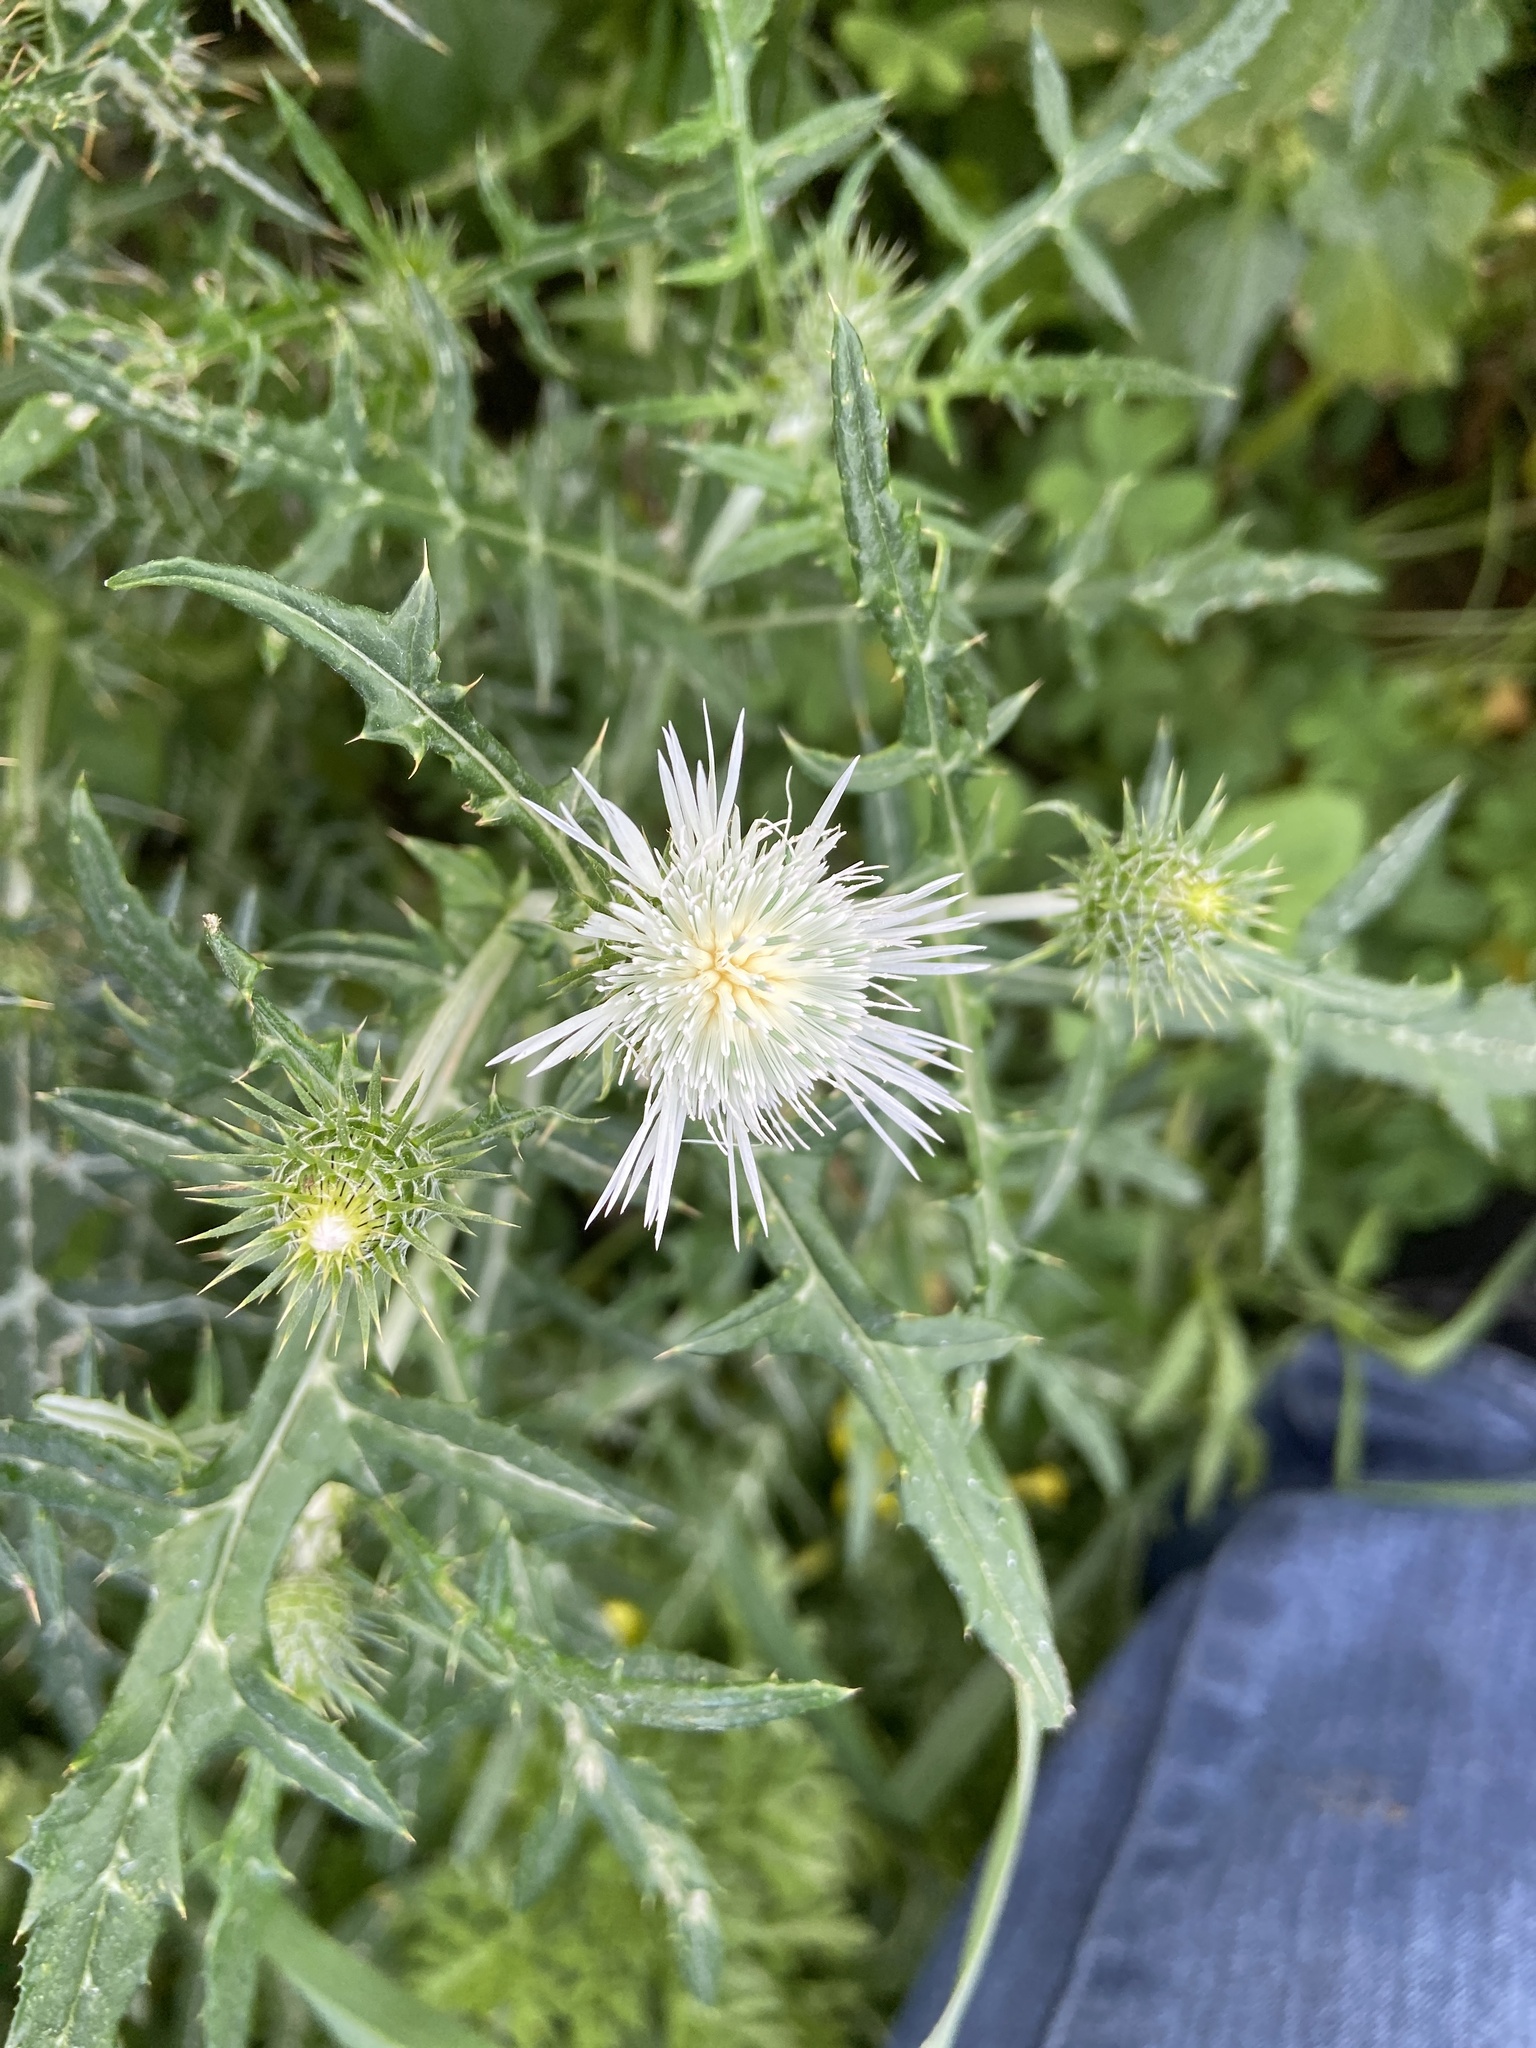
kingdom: Plantae
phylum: Tracheophyta
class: Magnoliopsida
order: Asterales
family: Asteraceae
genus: Galactites
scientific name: Galactites tomentosa
